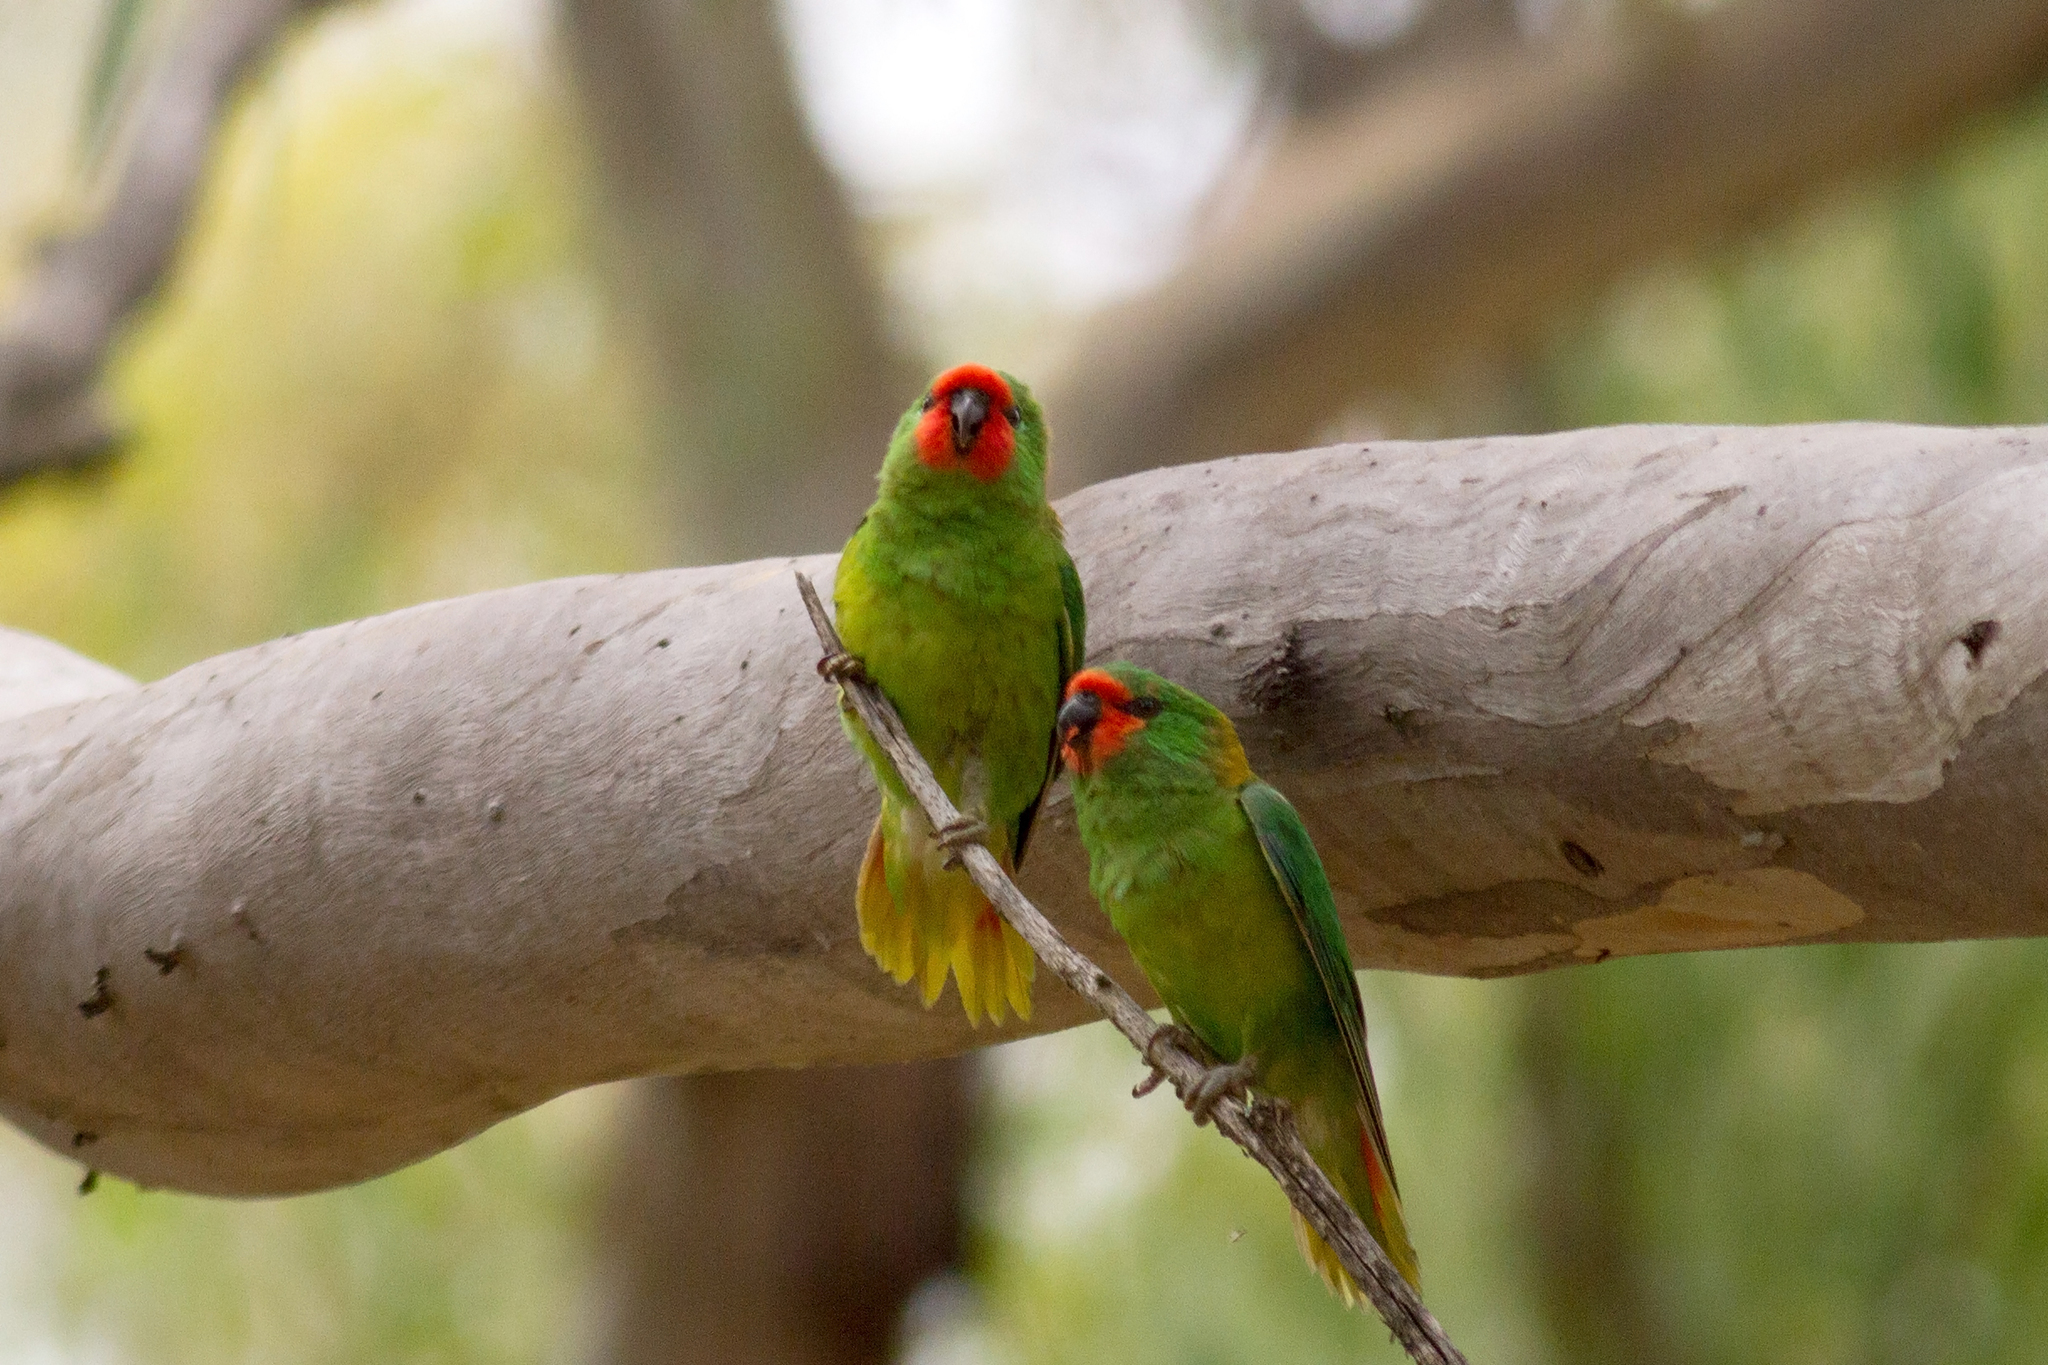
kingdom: Animalia
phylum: Chordata
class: Aves
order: Psittaciformes
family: Psittaculidae
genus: Parvipsitta
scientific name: Parvipsitta pusilla
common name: Little lorikeet
